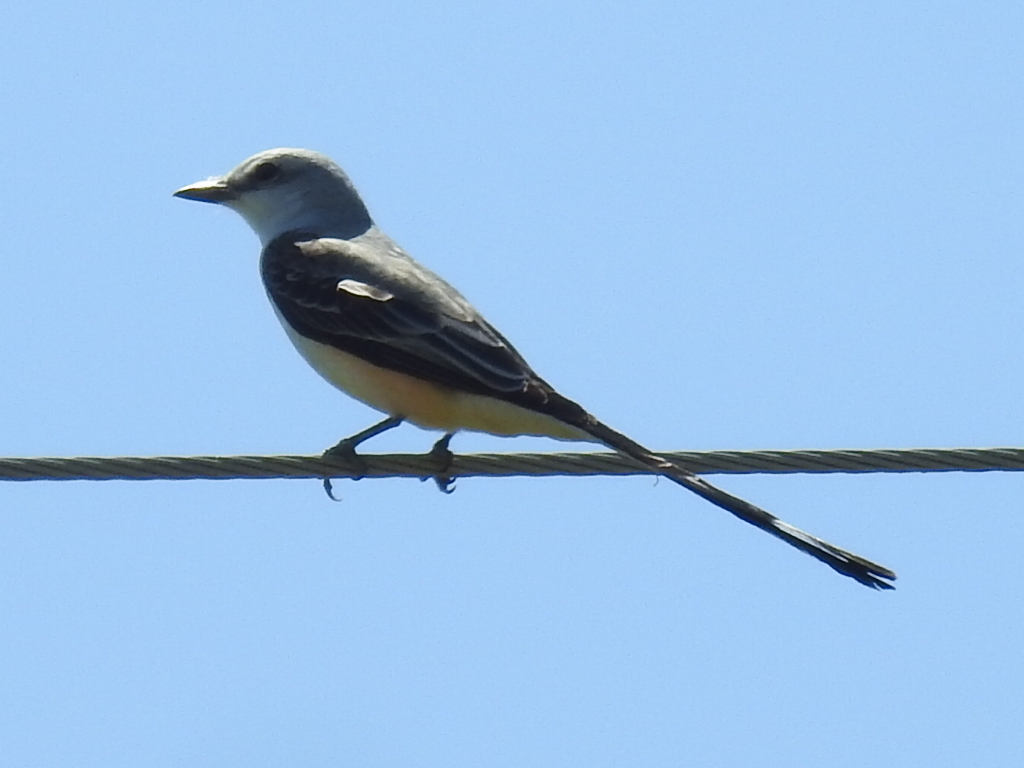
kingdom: Animalia
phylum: Chordata
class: Aves
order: Passeriformes
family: Tyrannidae
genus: Tyrannus
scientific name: Tyrannus forficatus
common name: Scissor-tailed flycatcher
